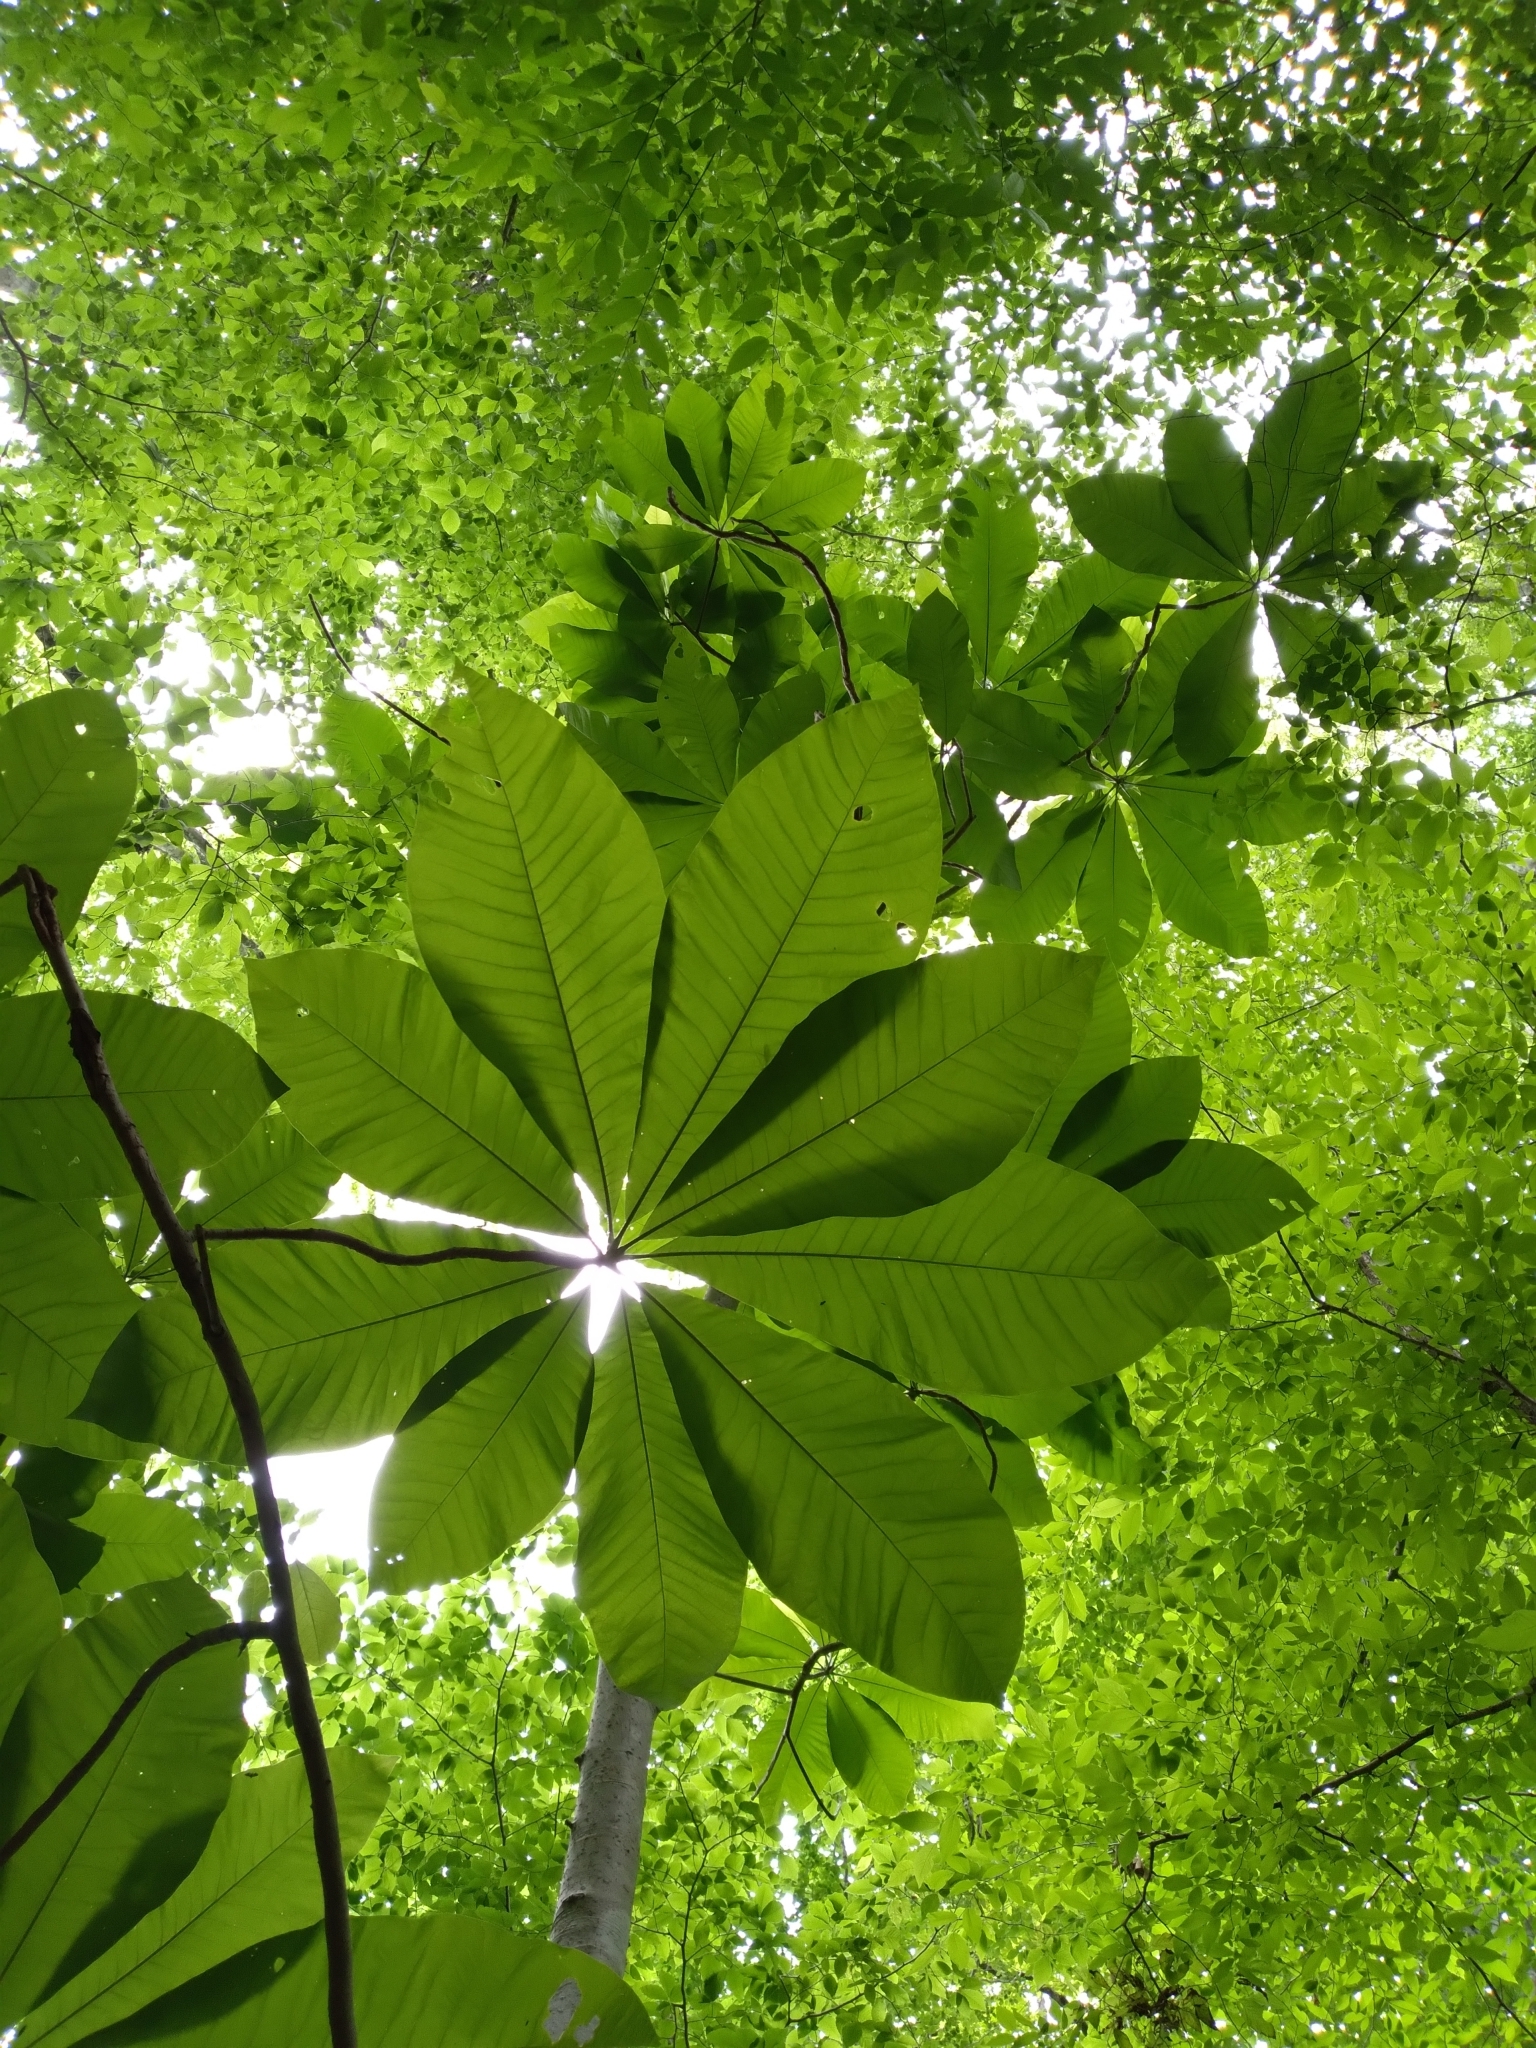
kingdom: Plantae
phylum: Tracheophyta
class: Magnoliopsida
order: Magnoliales
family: Magnoliaceae
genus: Magnolia
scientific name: Magnolia tripetala
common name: Umbrella magnolia
